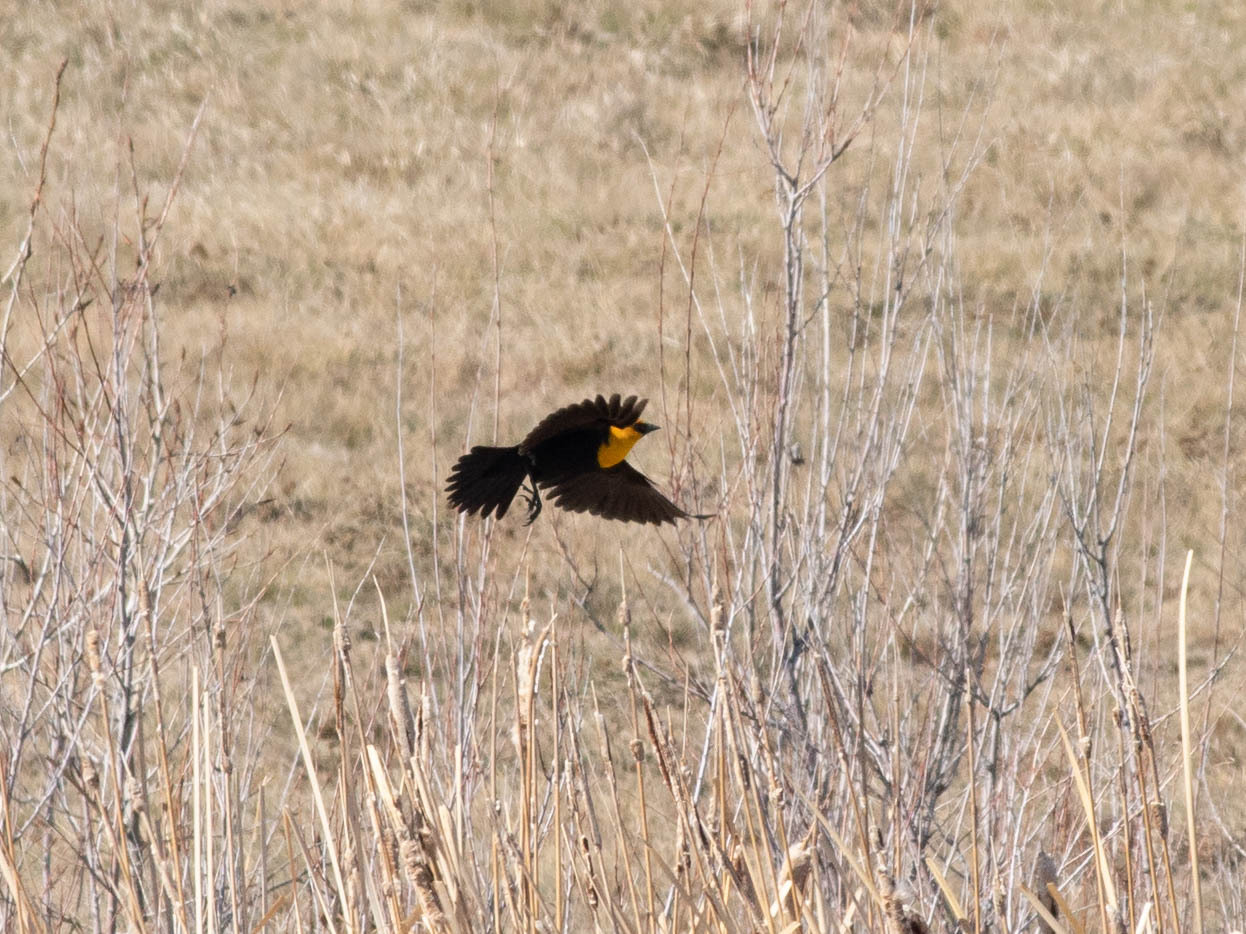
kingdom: Animalia
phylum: Chordata
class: Aves
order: Passeriformes
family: Icteridae
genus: Xanthocephalus
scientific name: Xanthocephalus xanthocephalus
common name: Yellow-headed blackbird
